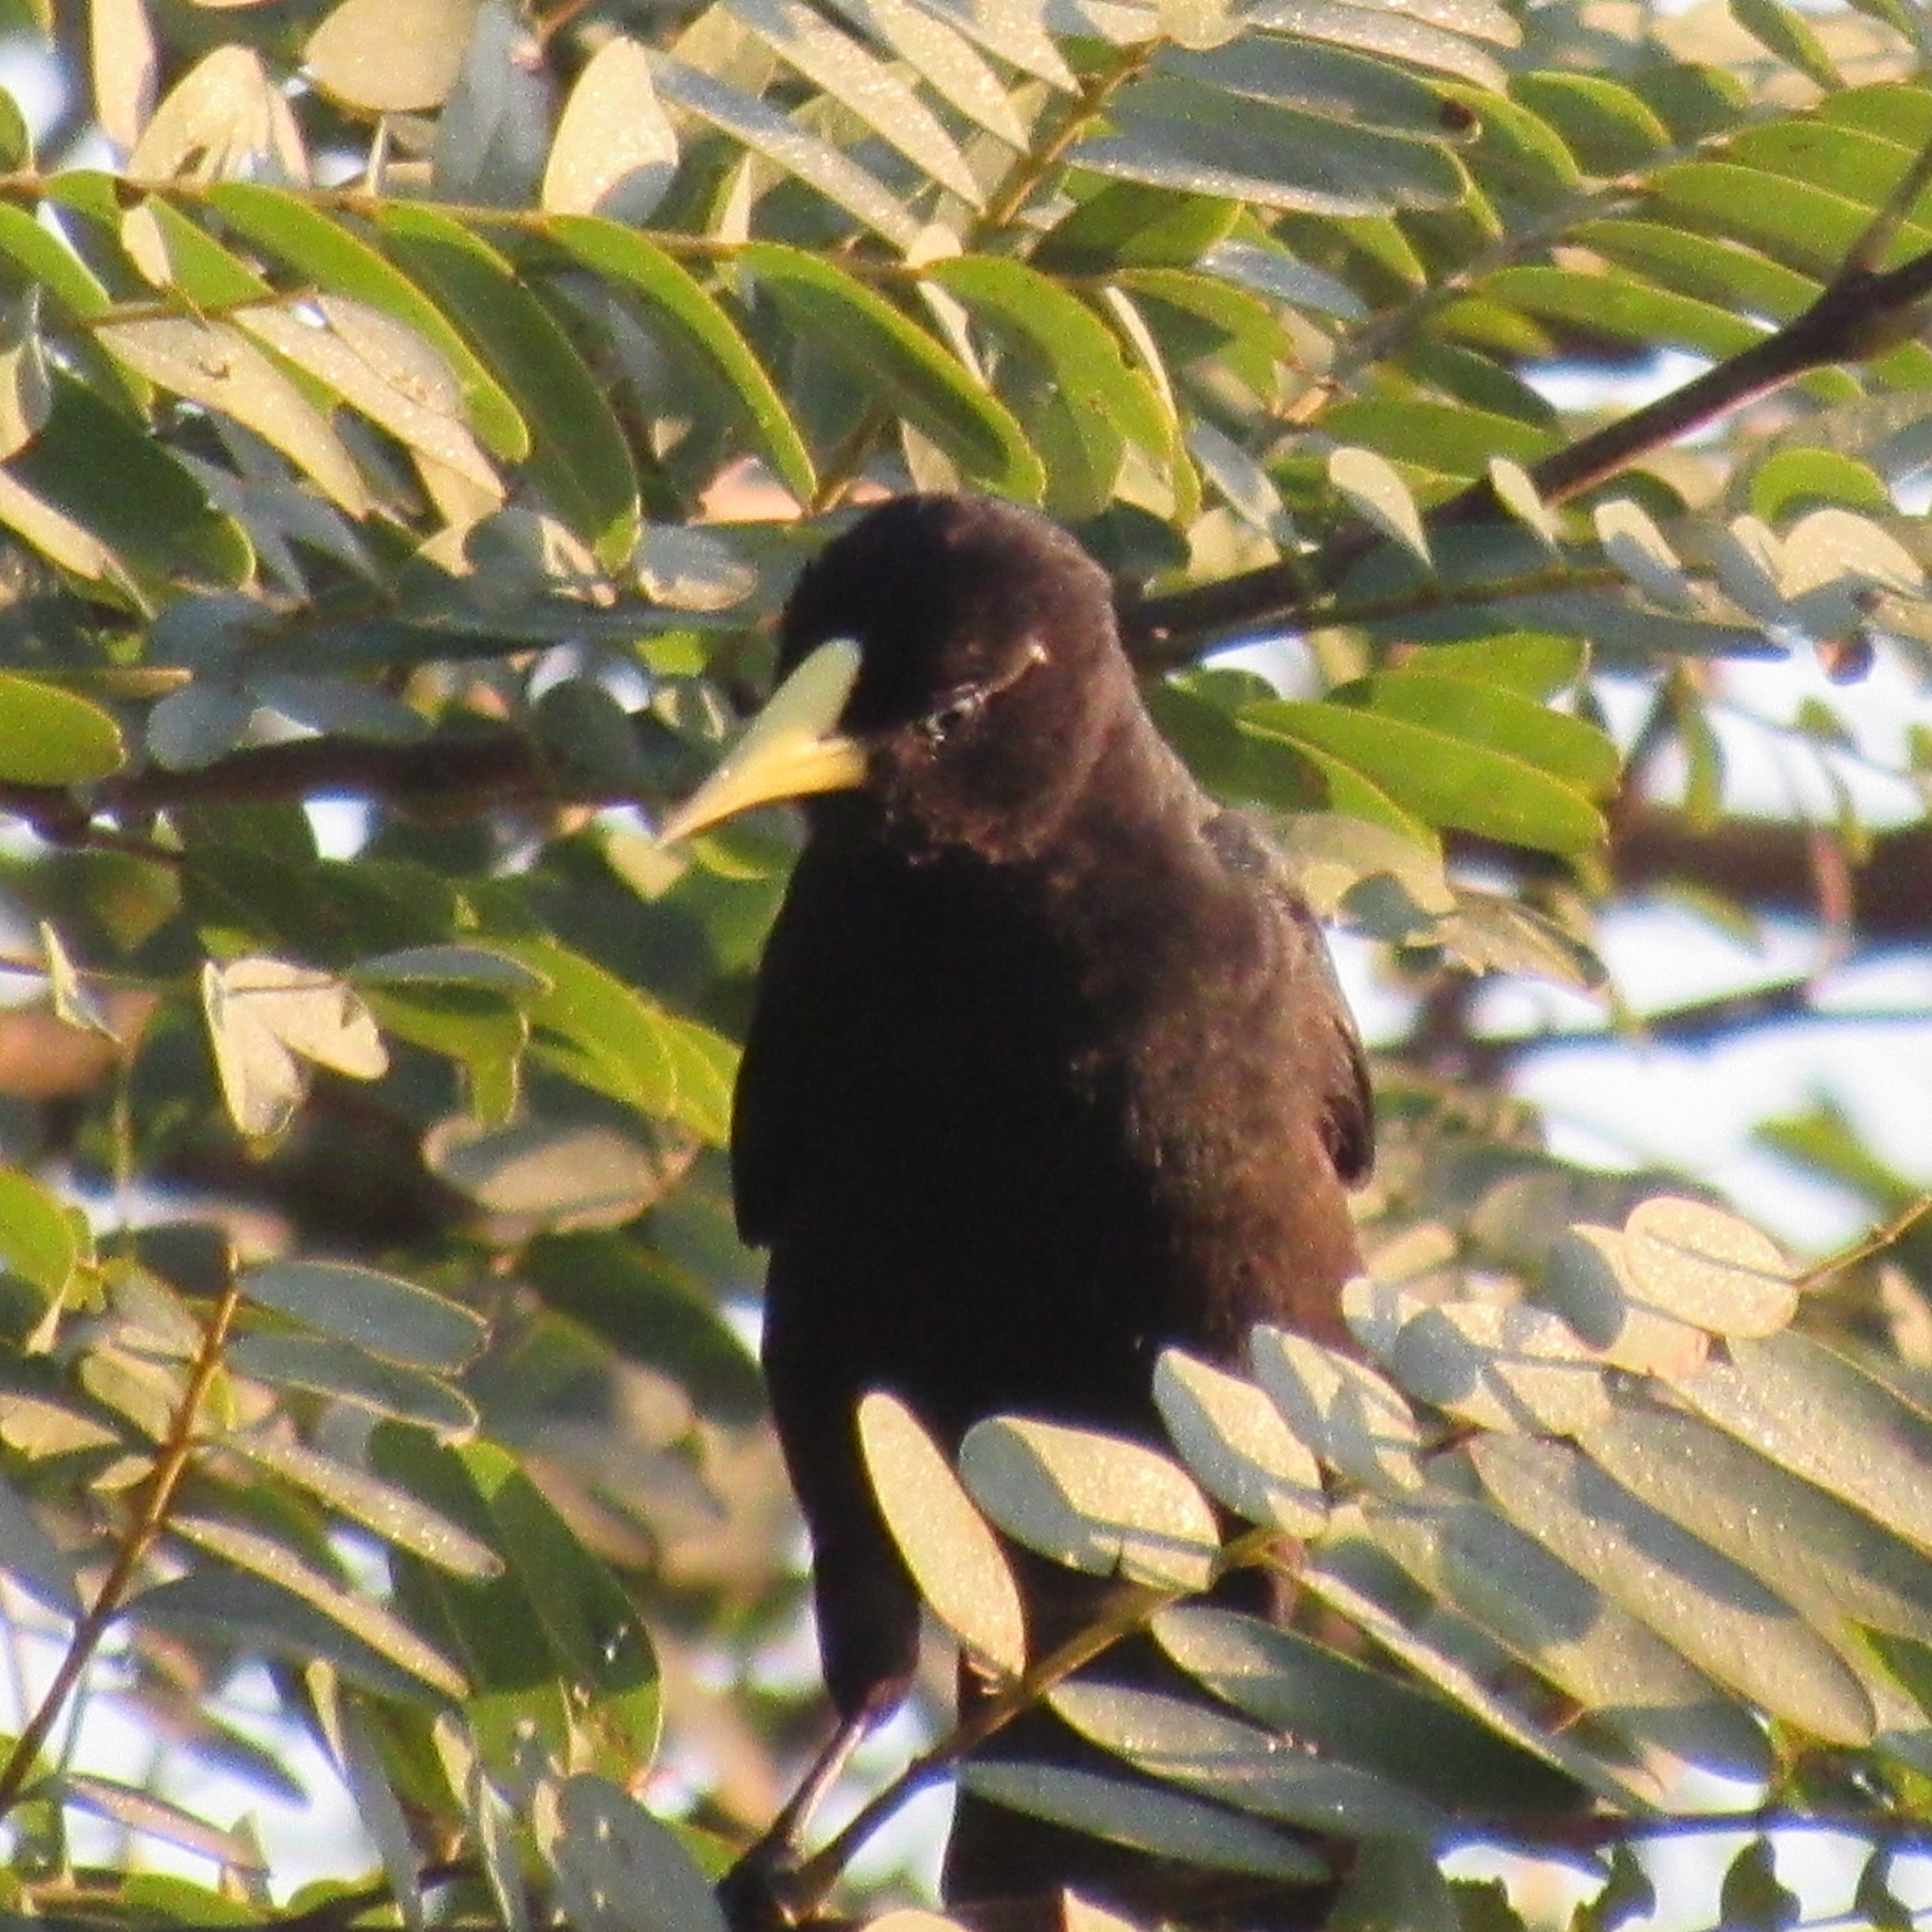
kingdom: Animalia
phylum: Chordata
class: Aves
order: Passeriformes
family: Icteridae
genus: Cacicus
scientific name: Cacicus haemorrhous
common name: Red-rumped cacique
